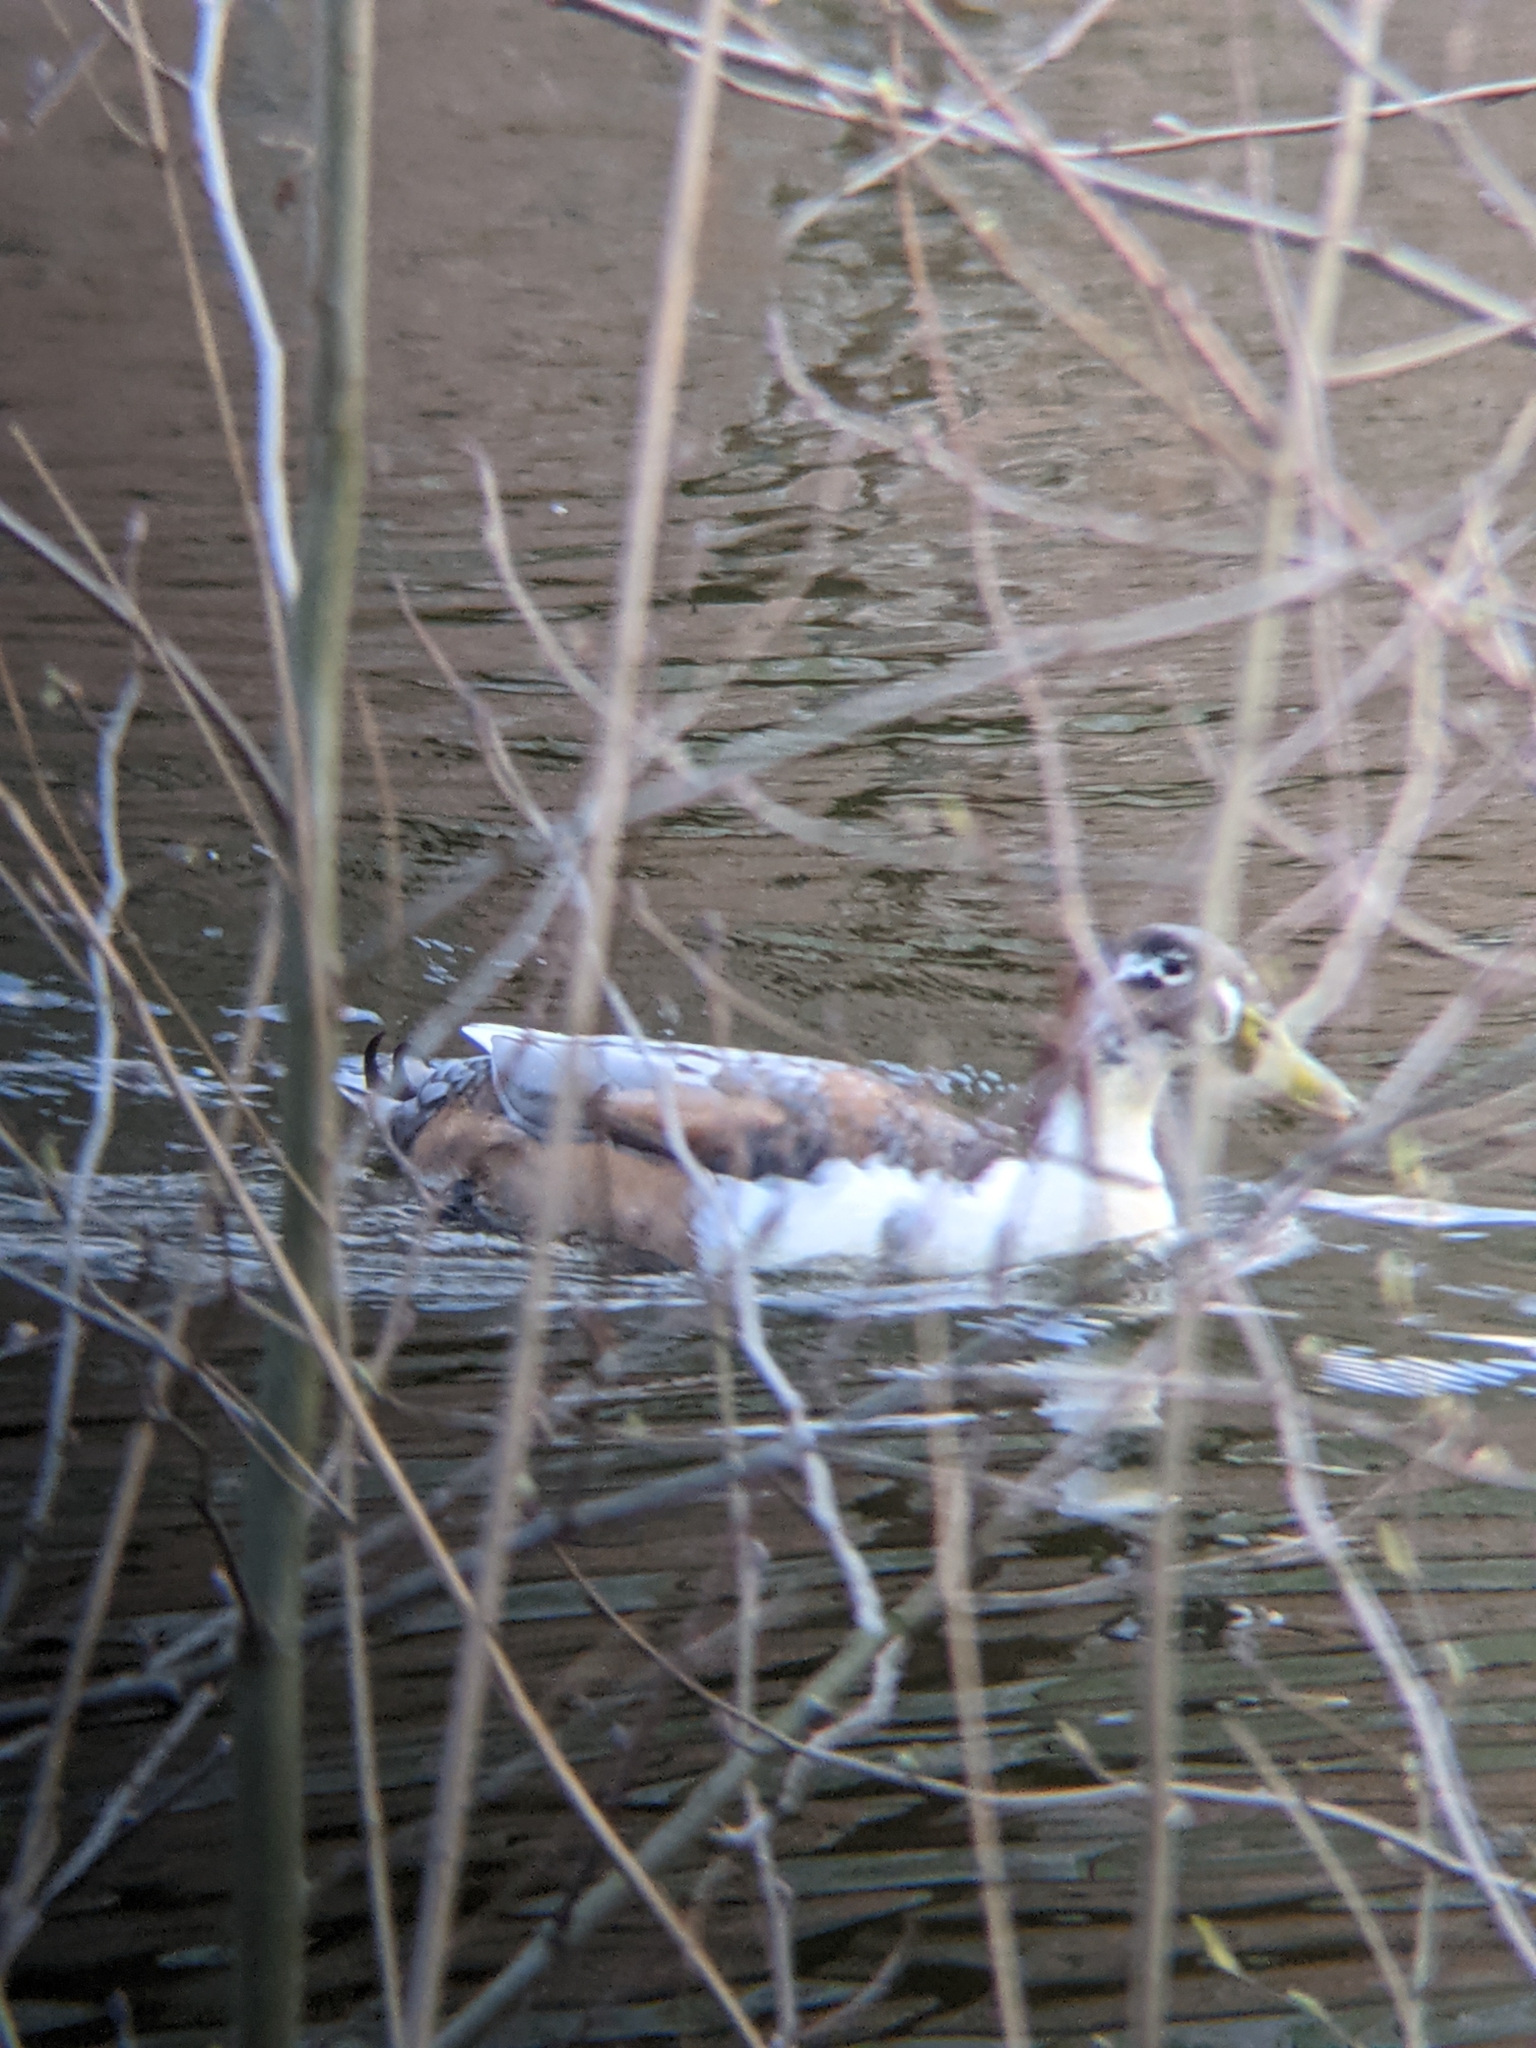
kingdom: Animalia
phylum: Chordata
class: Aves
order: Anseriformes
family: Anatidae
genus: Anas
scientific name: Anas platyrhynchos
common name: Mallard
